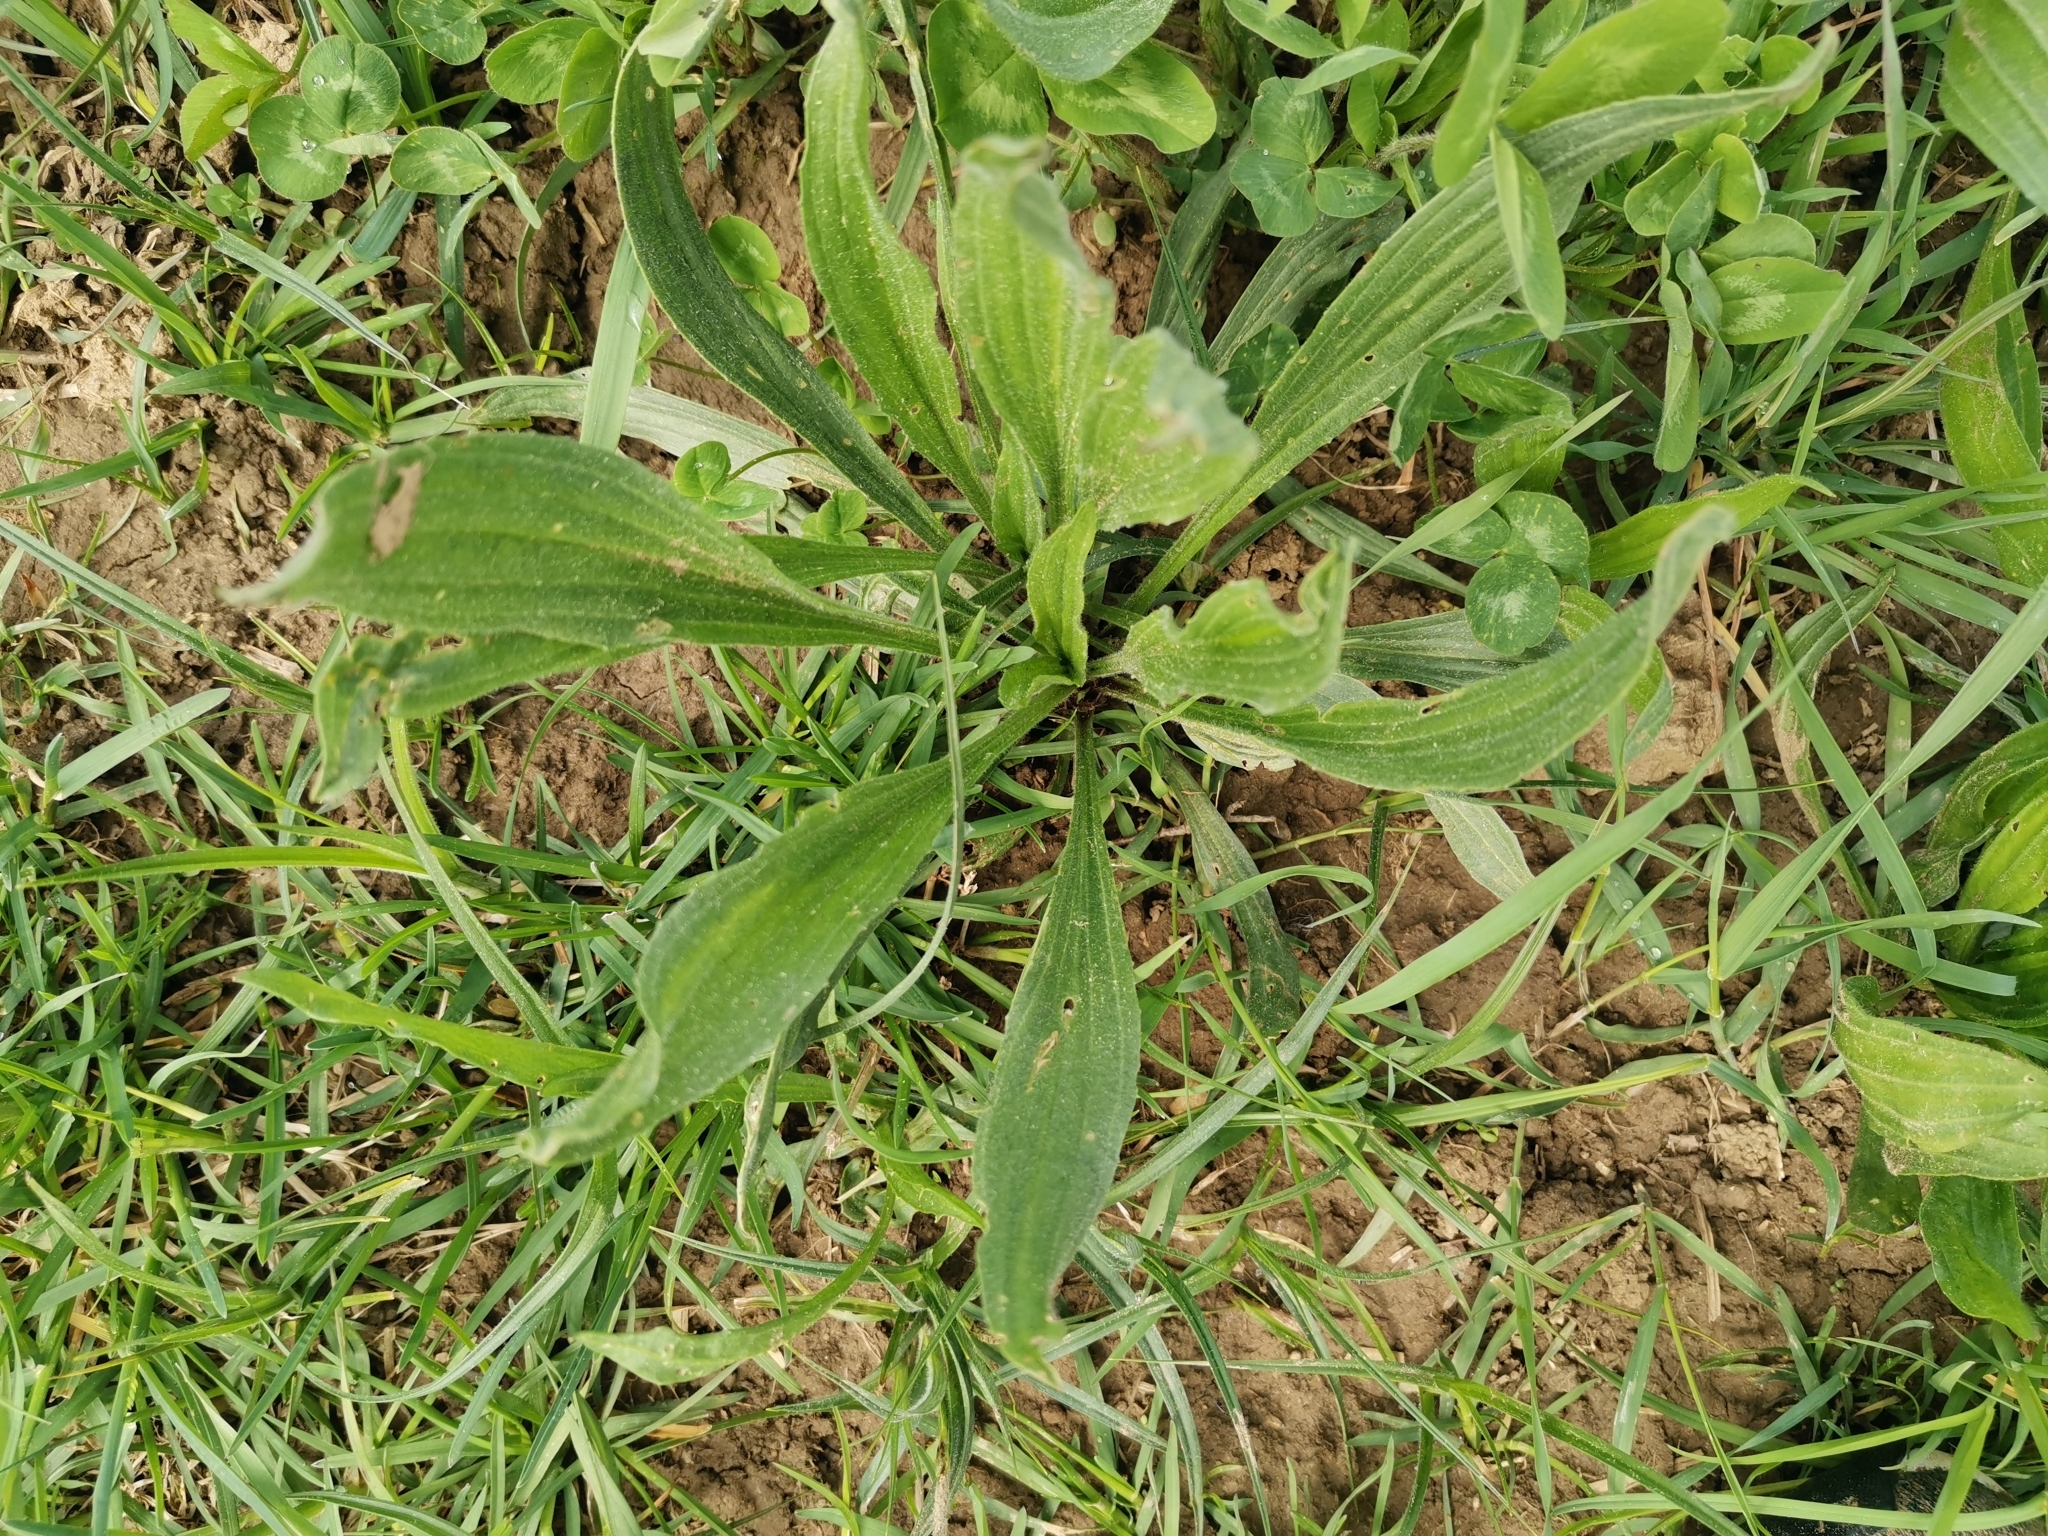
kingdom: Plantae
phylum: Tracheophyta
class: Magnoliopsida
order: Lamiales
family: Plantaginaceae
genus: Plantago
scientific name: Plantago lanceolata
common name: Ribwort plantain
